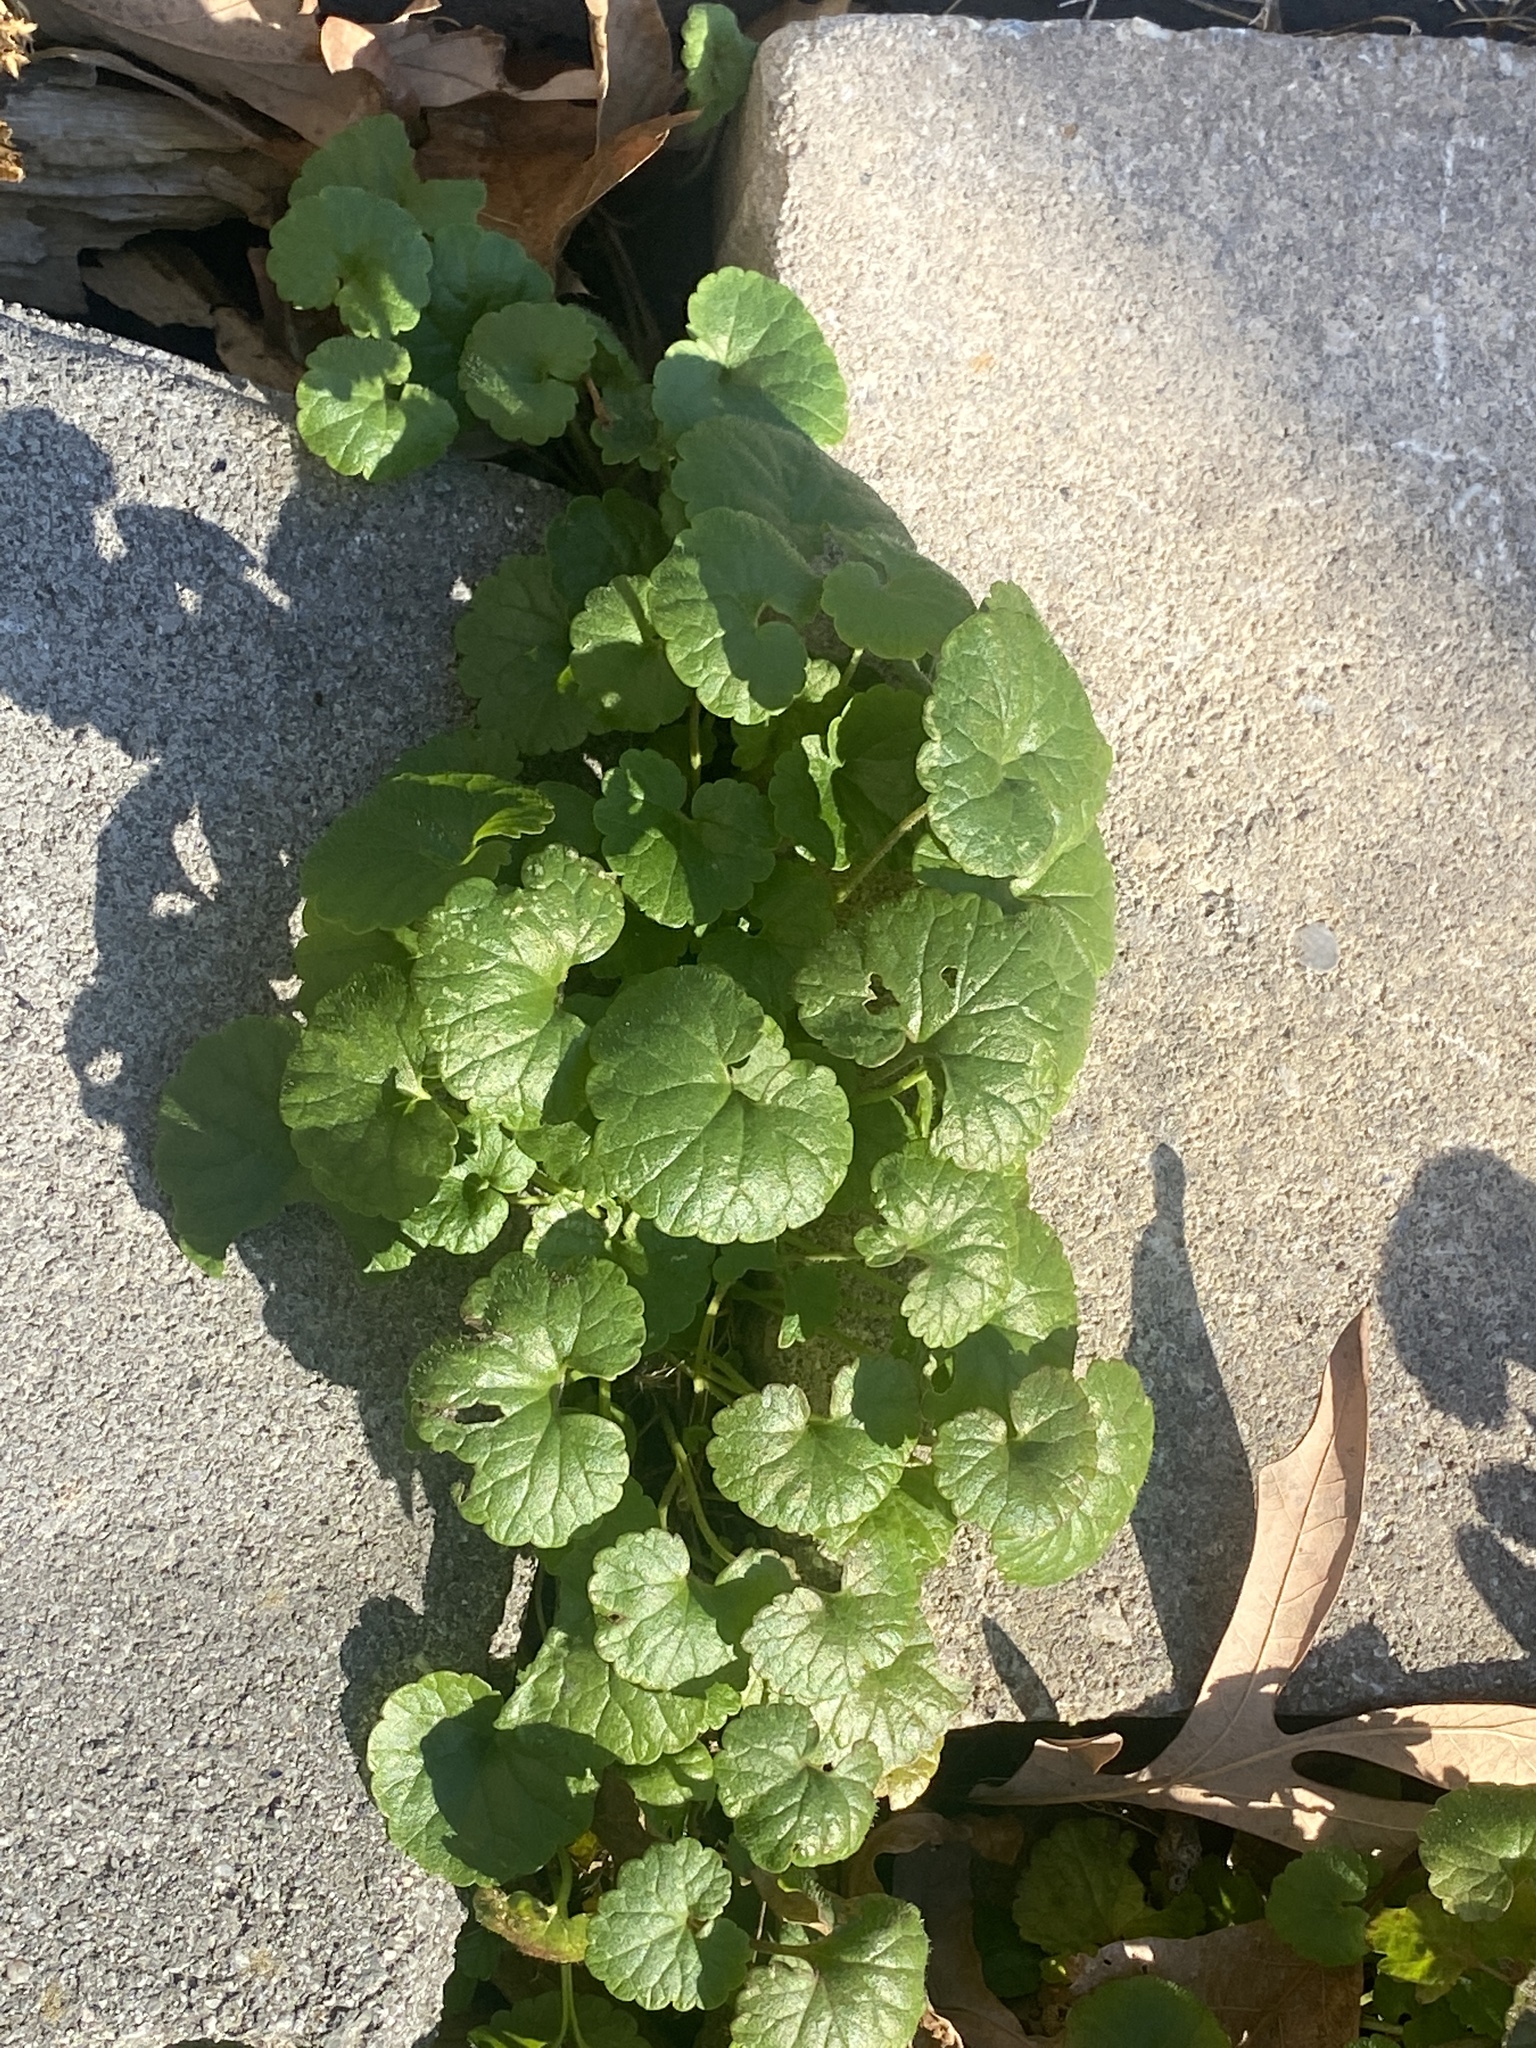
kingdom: Plantae
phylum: Tracheophyta
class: Magnoliopsida
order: Lamiales
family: Lamiaceae
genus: Glechoma
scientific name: Glechoma hederacea
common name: Ground ivy
